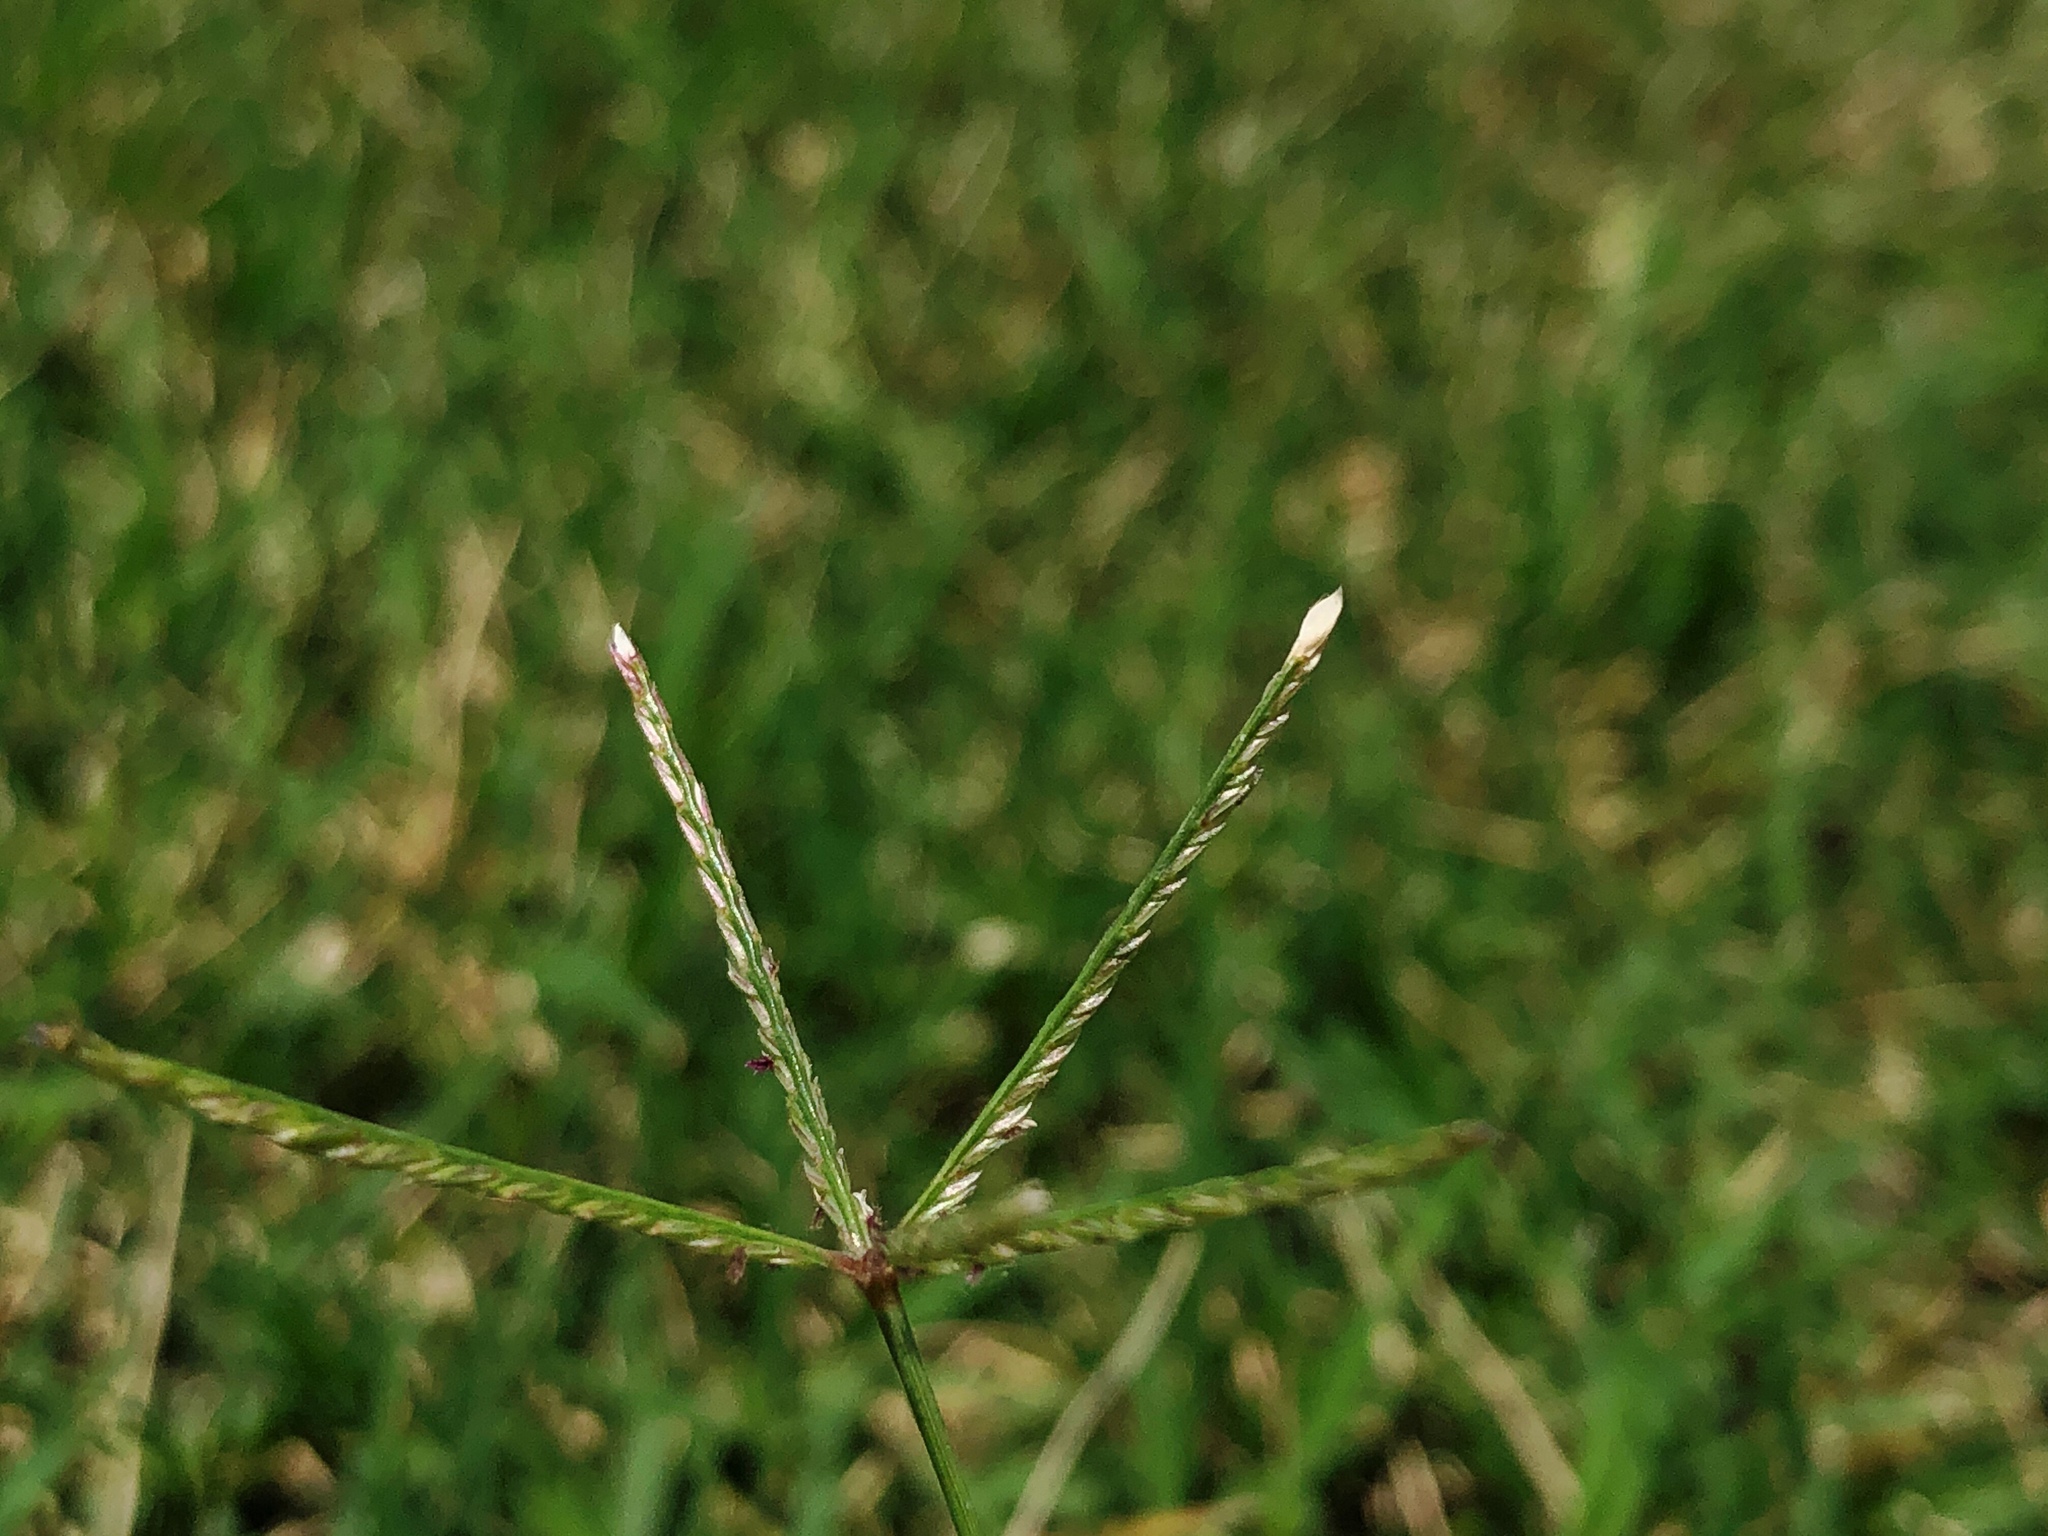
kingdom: Plantae
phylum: Tracheophyta
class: Liliopsida
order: Poales
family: Poaceae
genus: Cynodon
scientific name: Cynodon dactylon
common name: Bermuda grass
